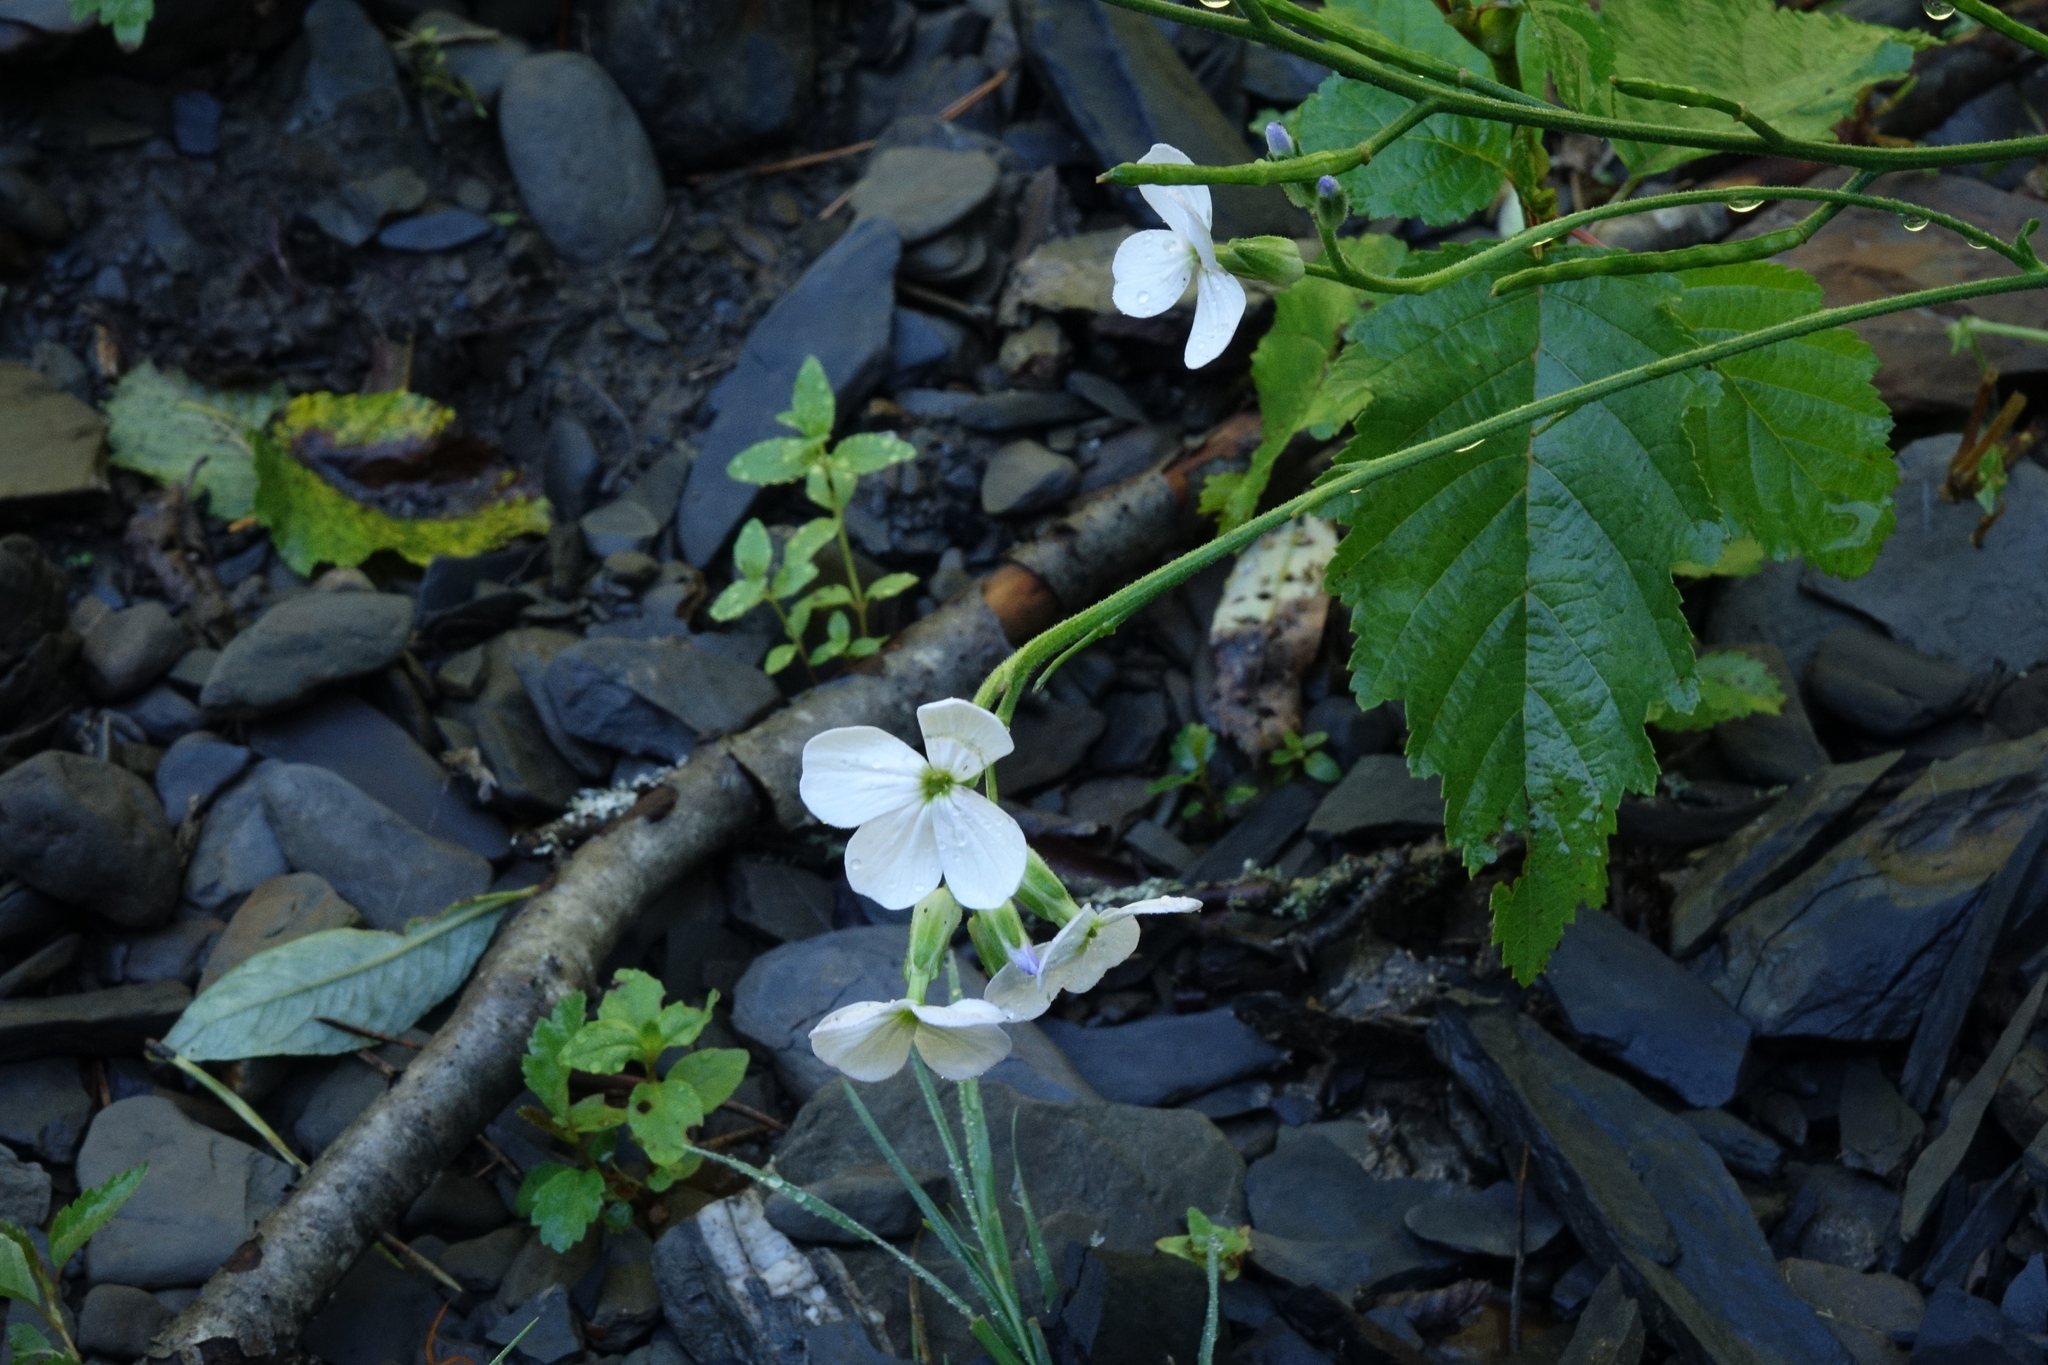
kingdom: Plantae
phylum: Tracheophyta
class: Magnoliopsida
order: Brassicales
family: Brassicaceae
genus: Hesperis
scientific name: Hesperis matronalis
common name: Dame's-violet
